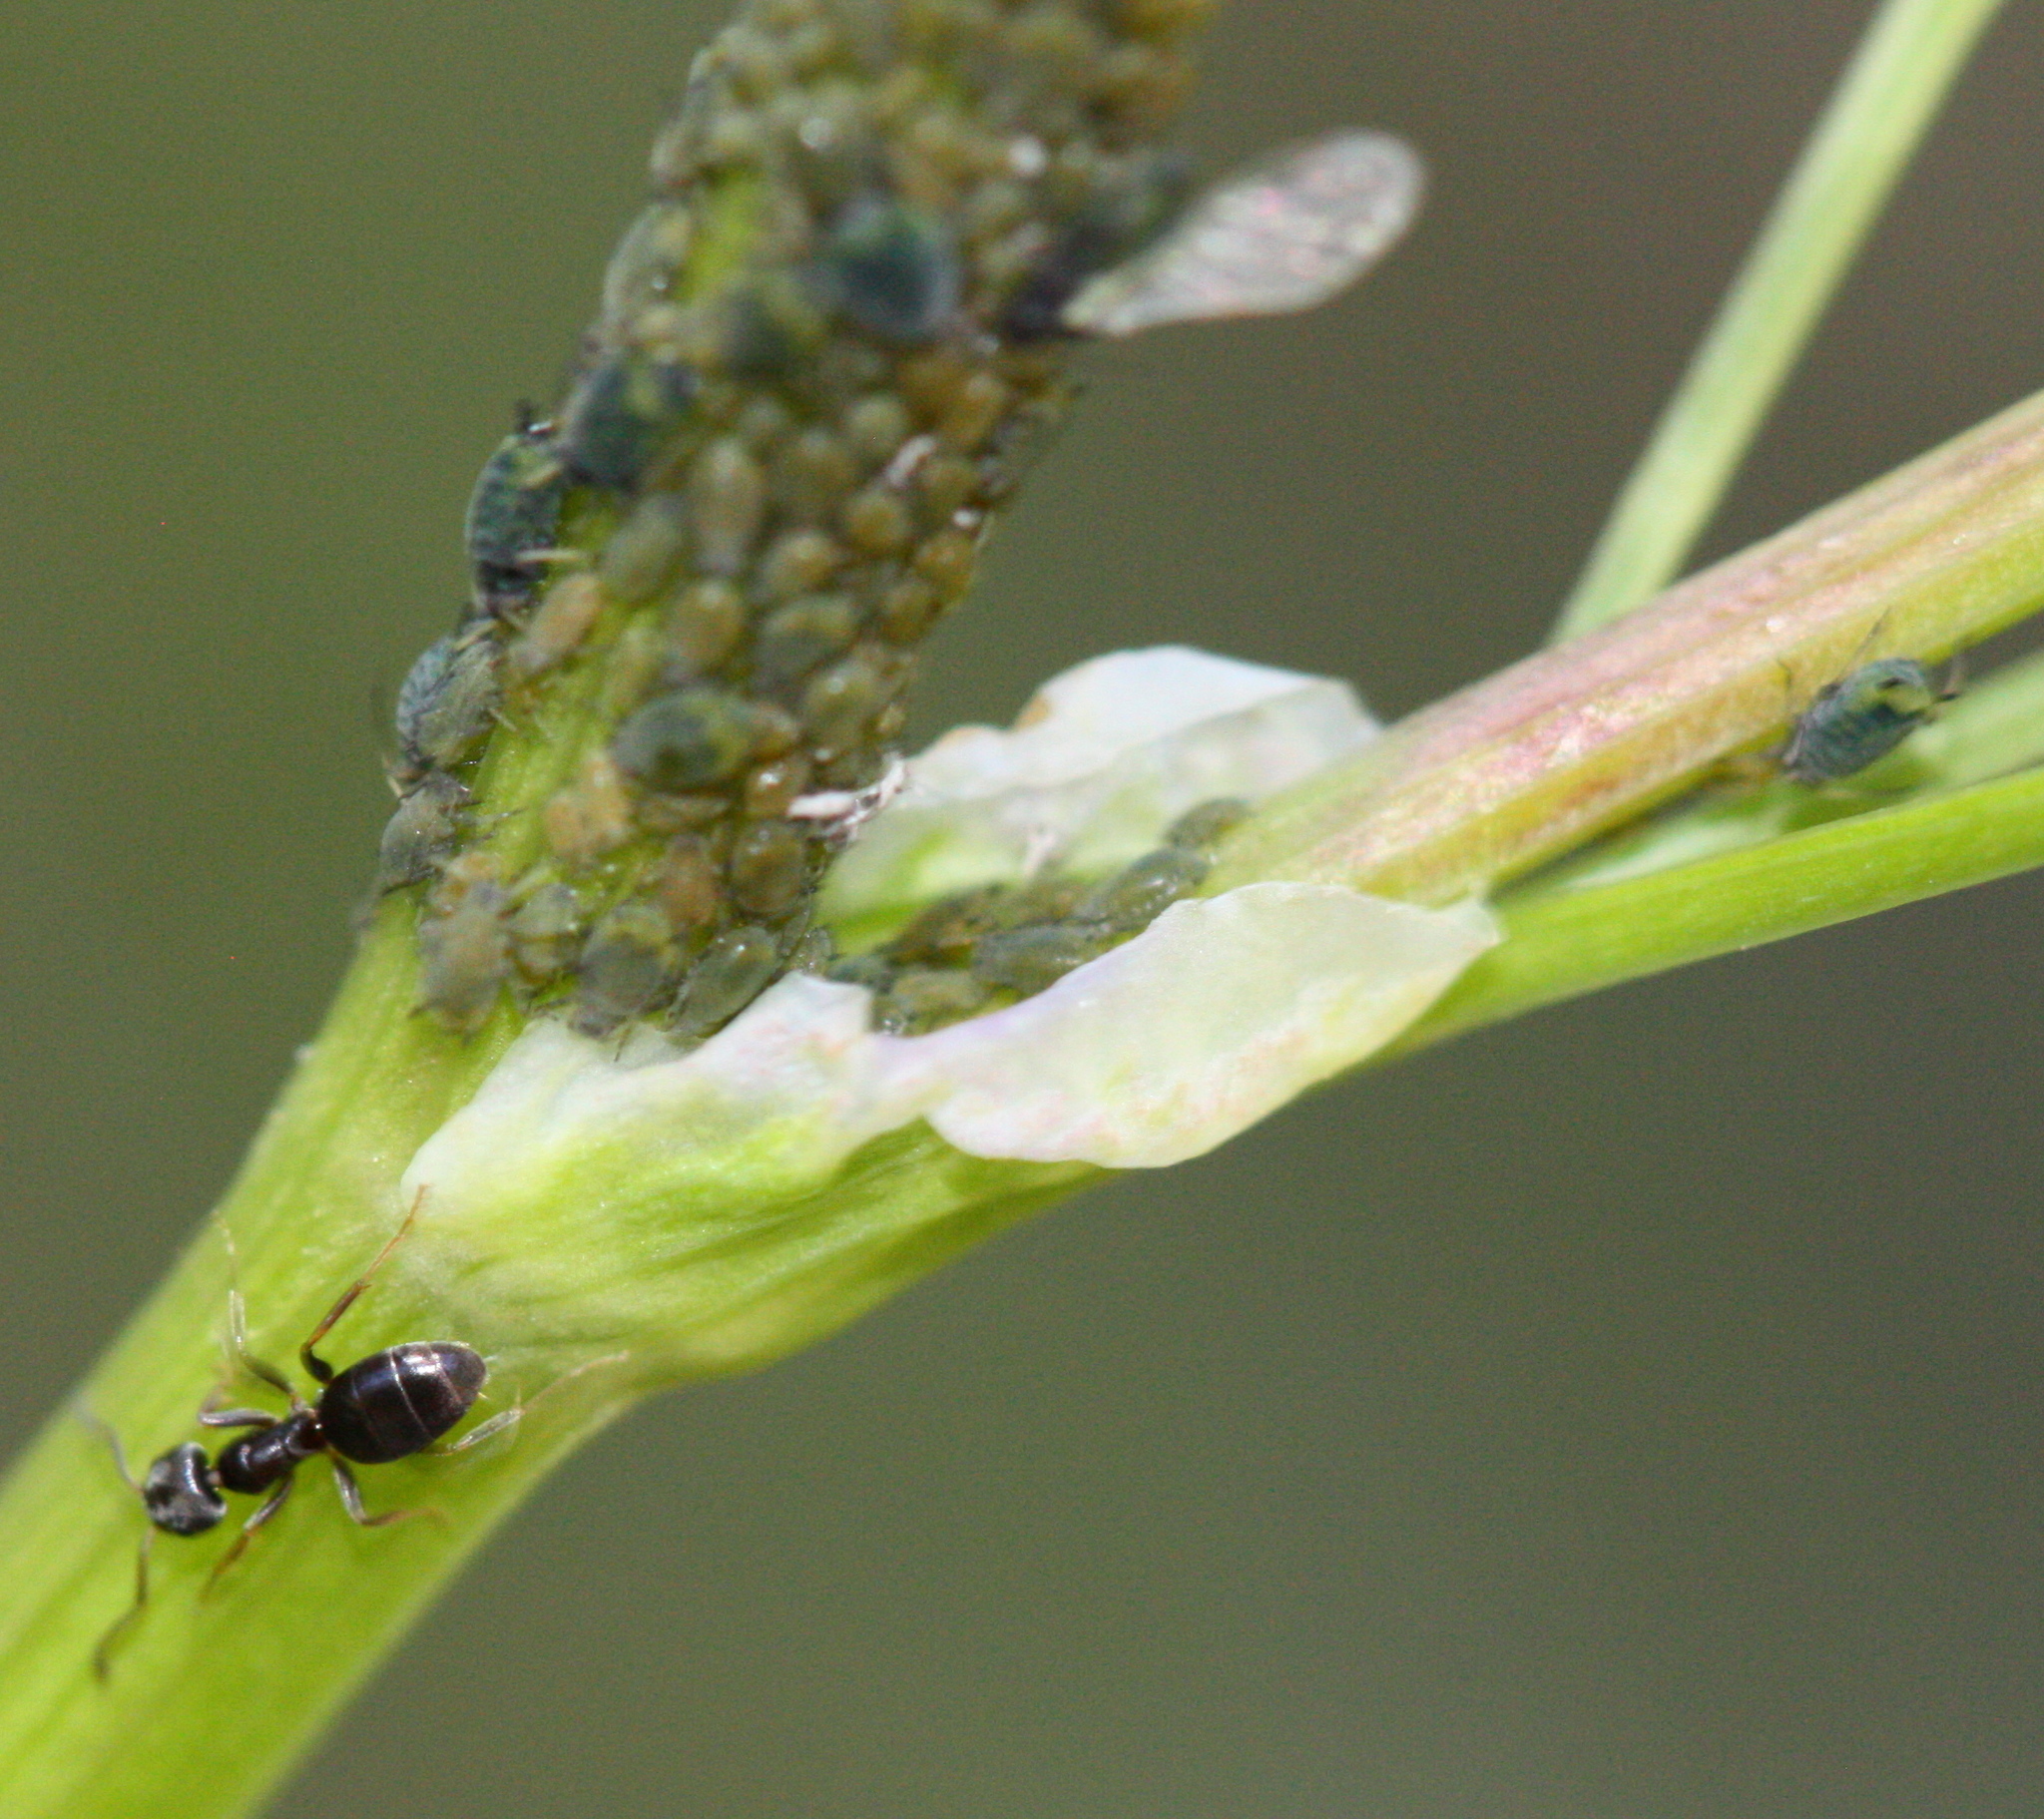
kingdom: Animalia
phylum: Arthropoda
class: Insecta
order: Hymenoptera
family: Formicidae
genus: Tapinoma
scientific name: Tapinoma sessile
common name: Odorous house ant
